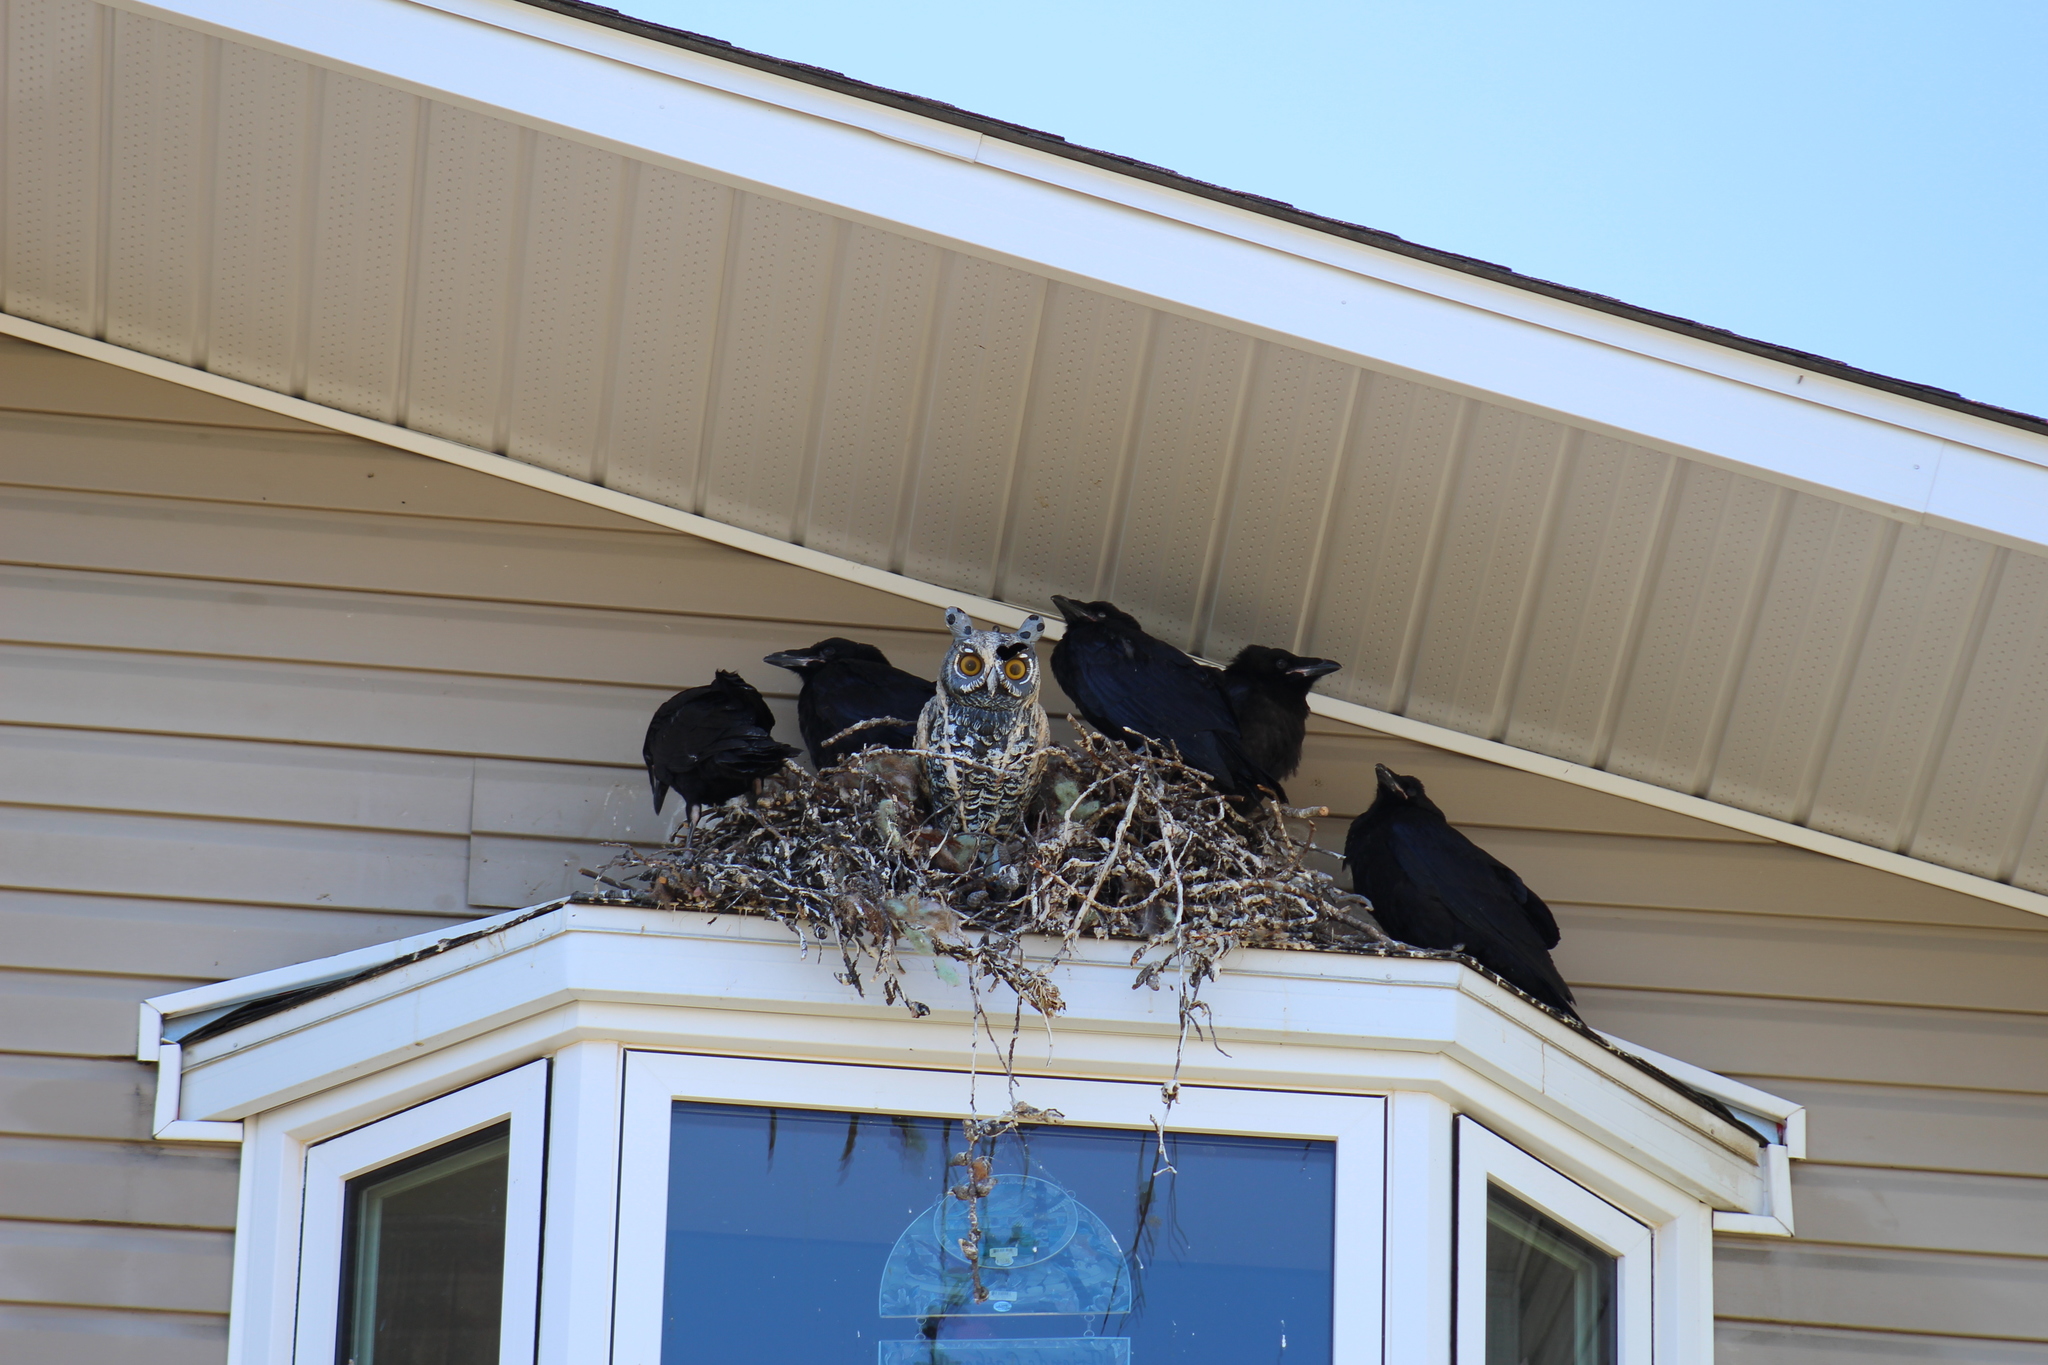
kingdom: Animalia
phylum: Chordata
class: Aves
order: Passeriformes
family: Corvidae
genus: Corvus
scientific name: Corvus corax
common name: Common raven
